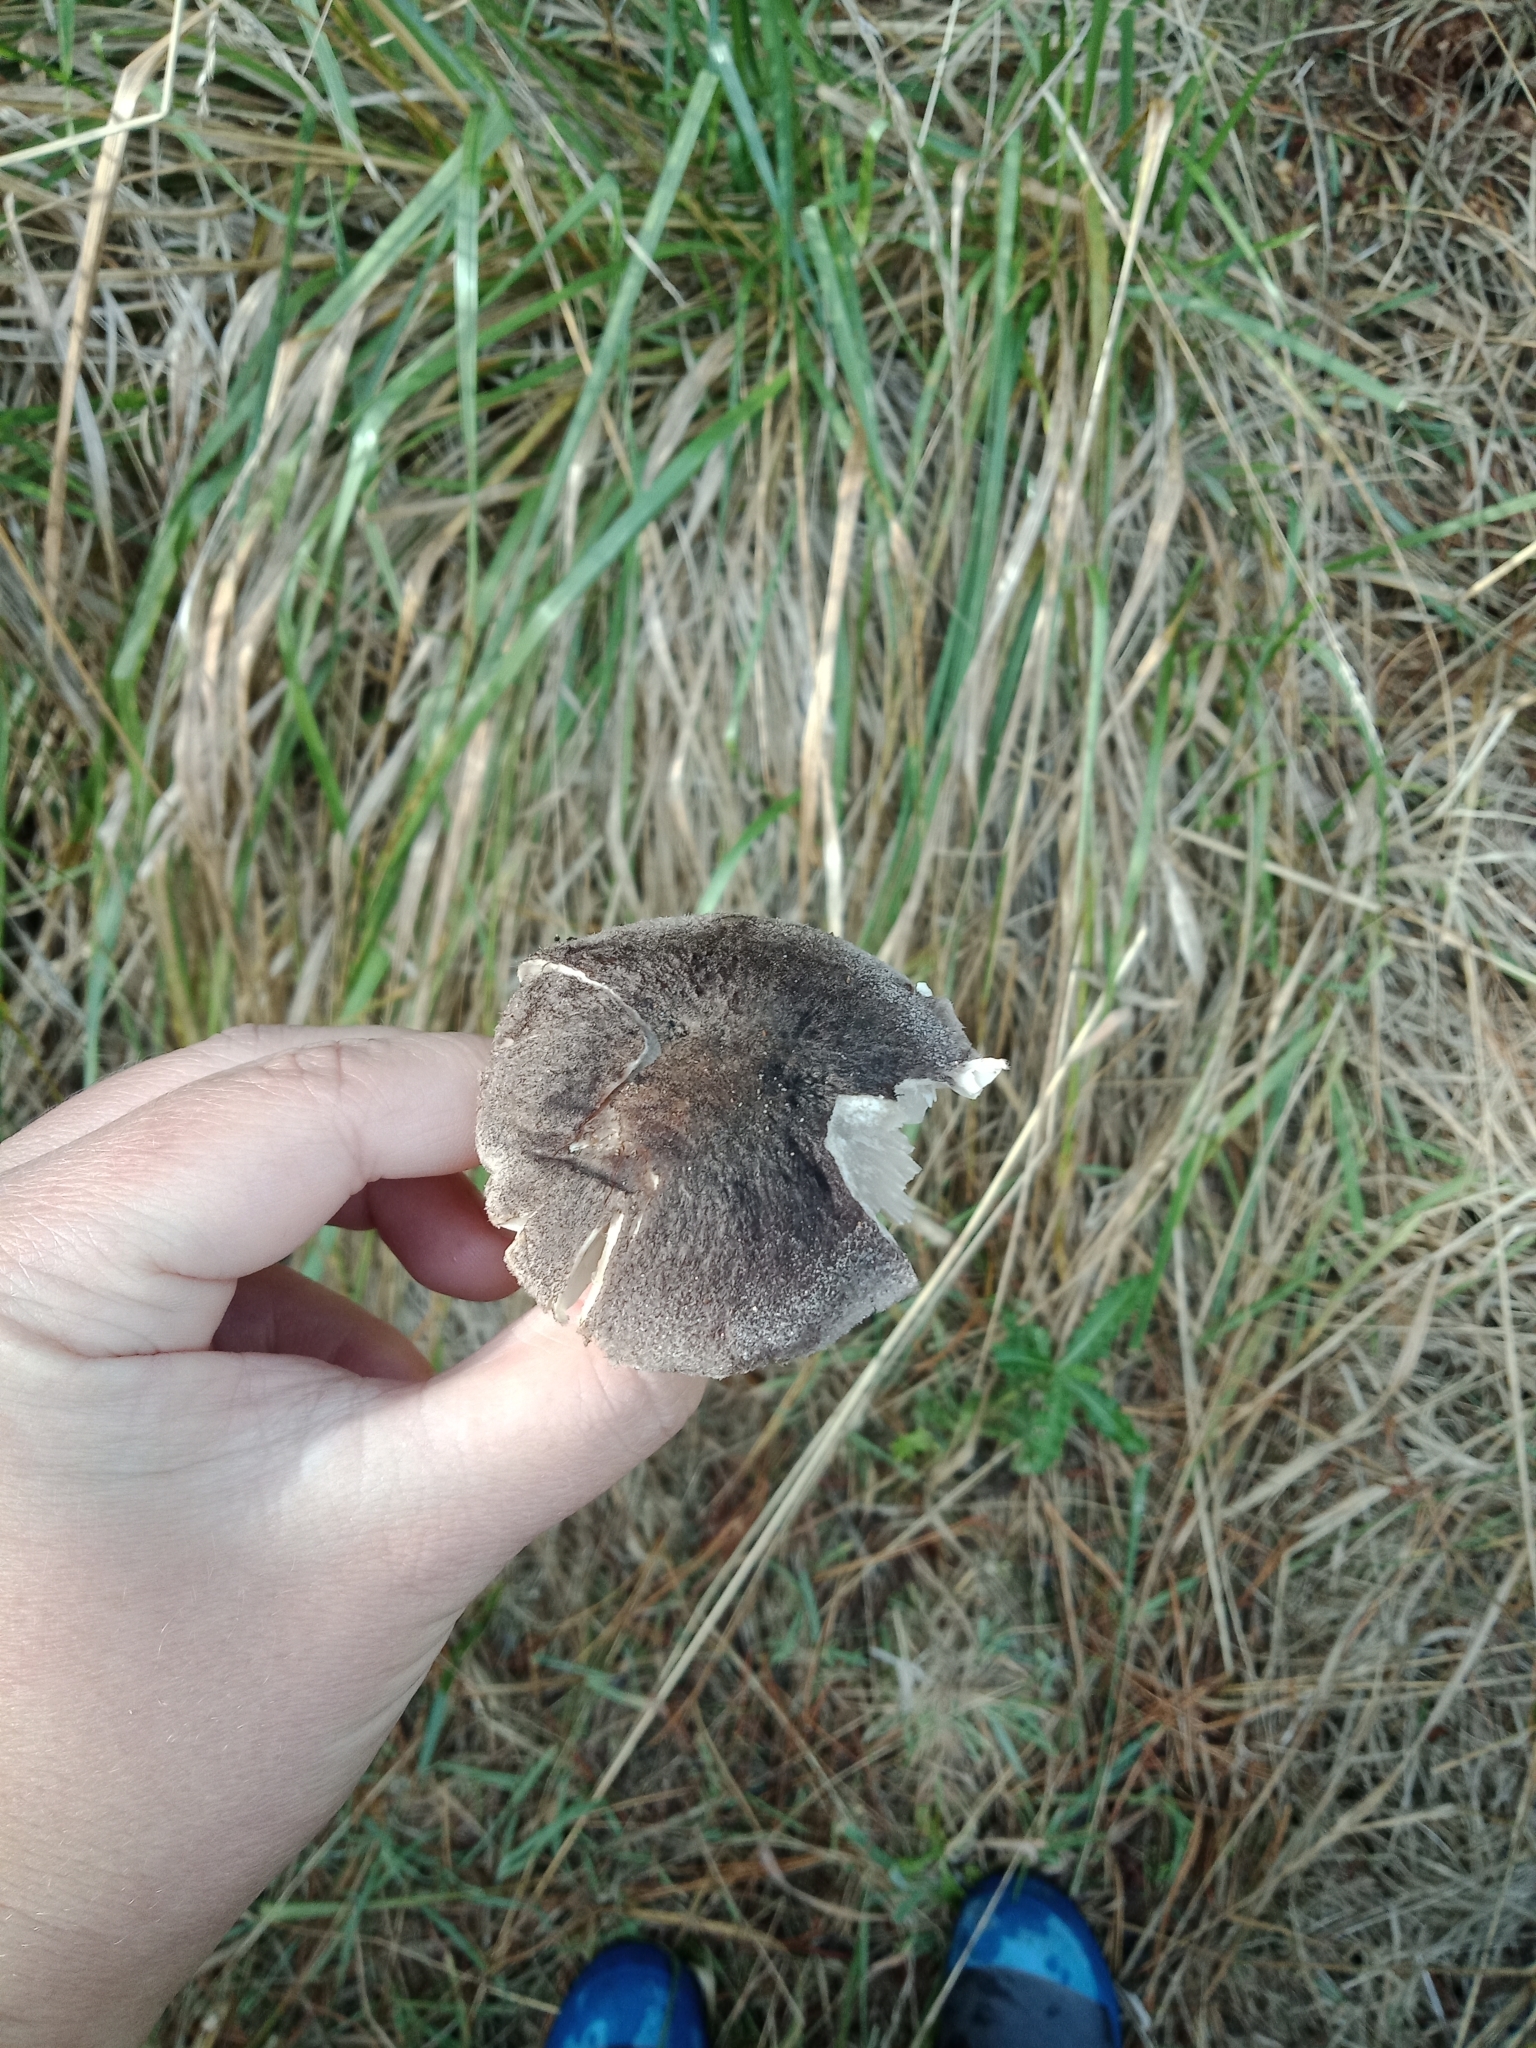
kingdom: Fungi
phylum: Basidiomycota
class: Agaricomycetes
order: Agaricales
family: Tricholomataceae
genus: Tricholoma
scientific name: Tricholoma terreum
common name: Grey knight
